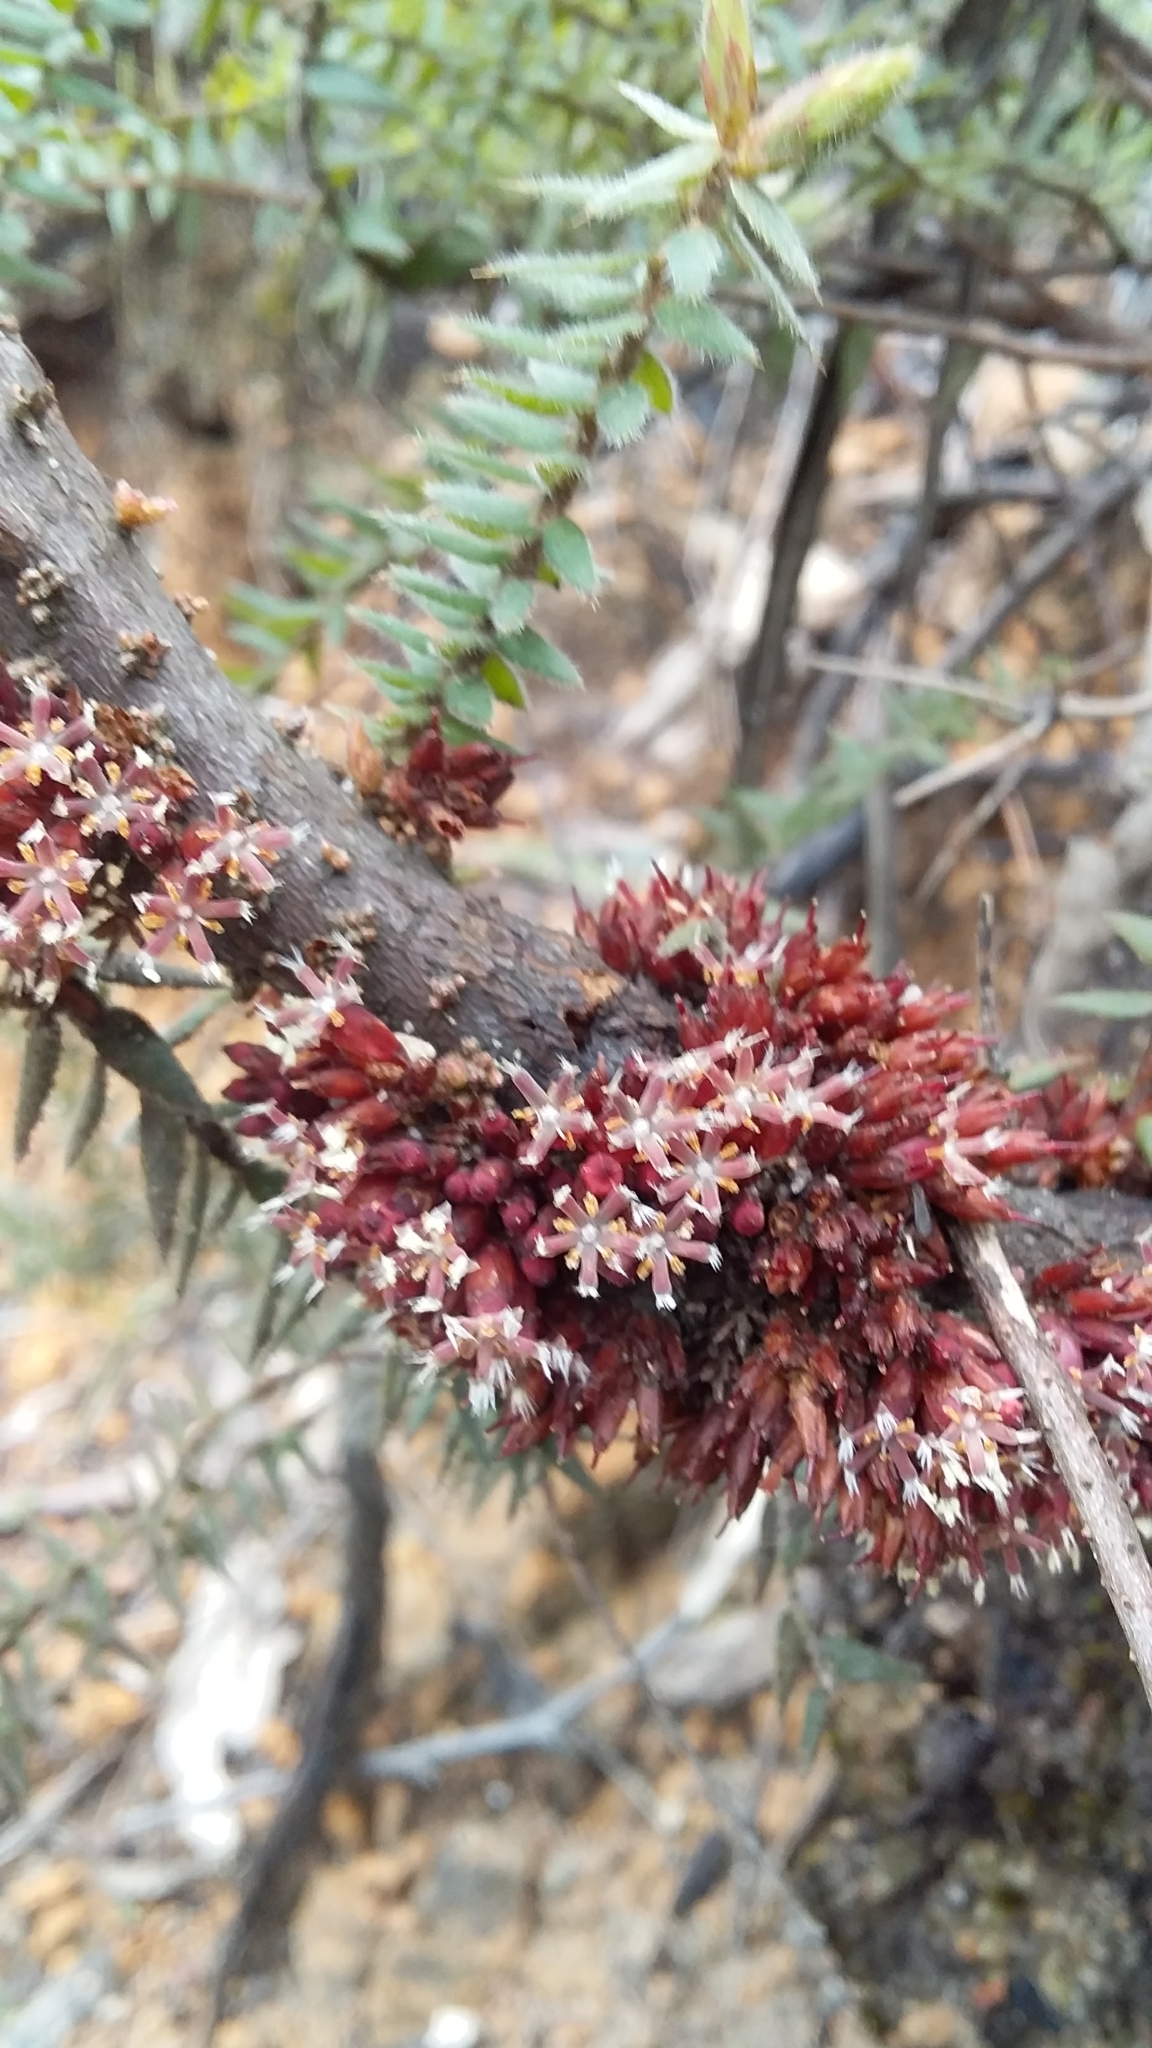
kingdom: Plantae
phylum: Tracheophyta
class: Magnoliopsida
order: Ericales
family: Ericaceae
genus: Acrotriche
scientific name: Acrotriche fasciculiflora
